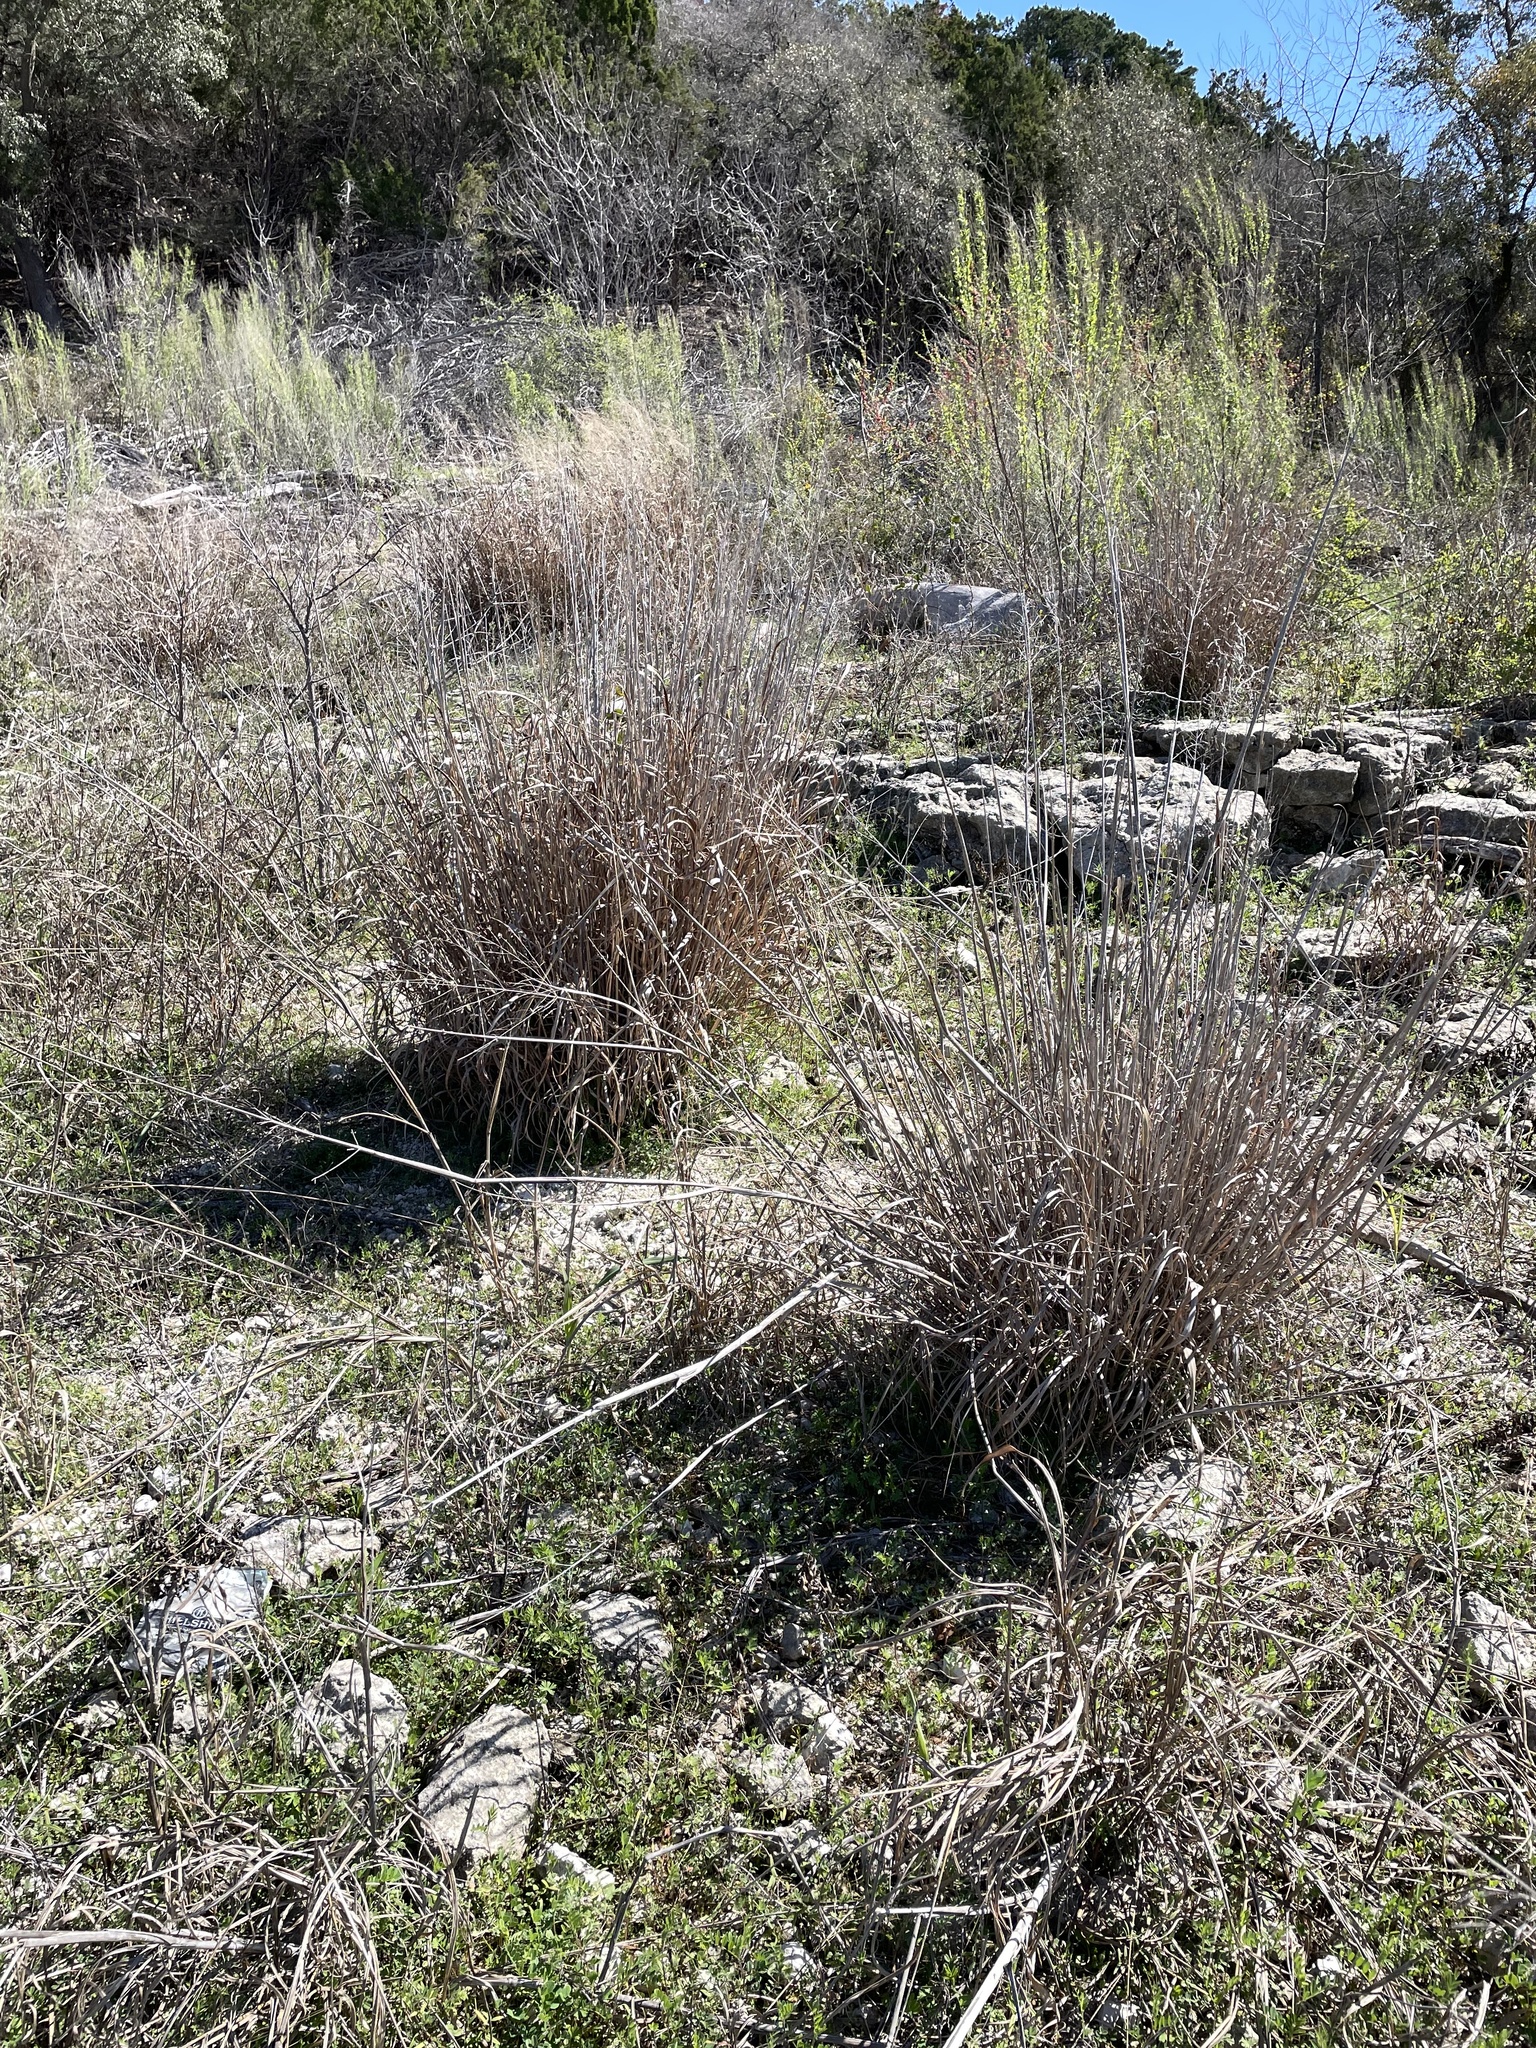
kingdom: Plantae
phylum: Tracheophyta
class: Liliopsida
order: Poales
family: Poaceae
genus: Panicum
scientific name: Panicum virgatum
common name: Switchgrass
